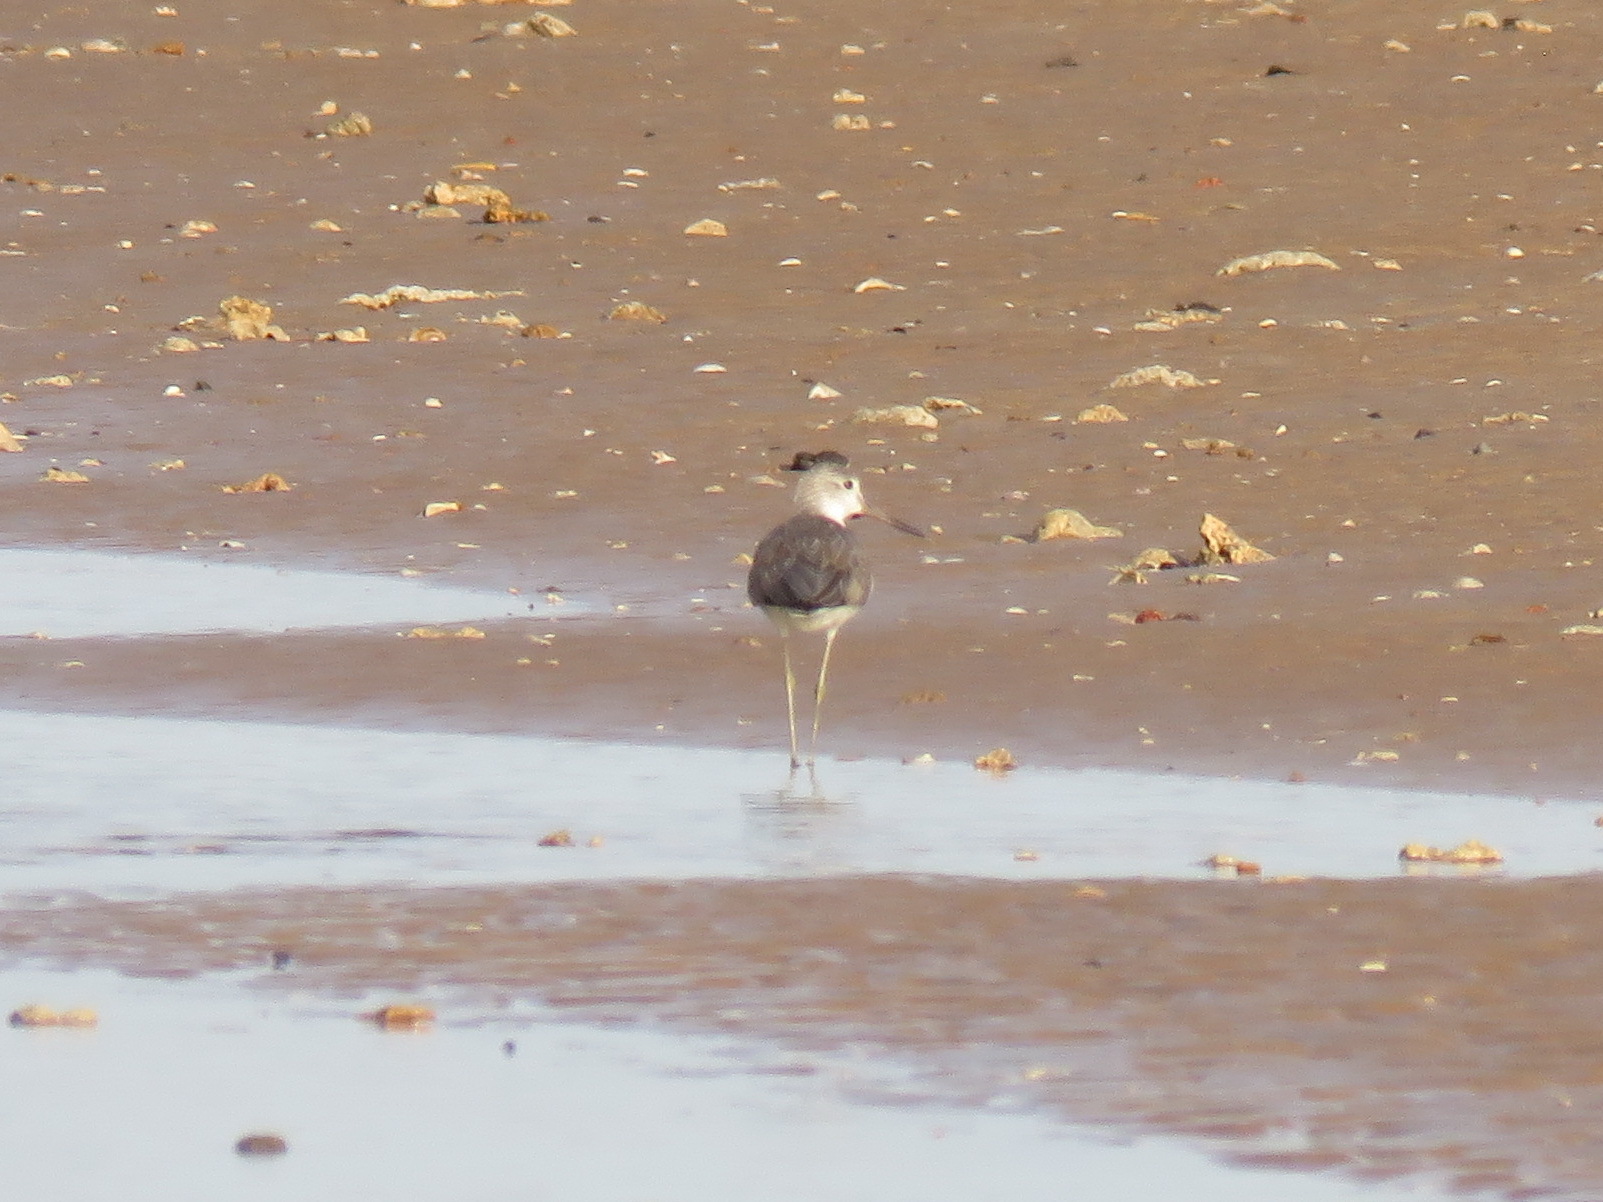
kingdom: Animalia
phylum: Chordata
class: Aves
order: Charadriiformes
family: Scolopacidae
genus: Tringa
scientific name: Tringa nebularia
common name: Common greenshank
